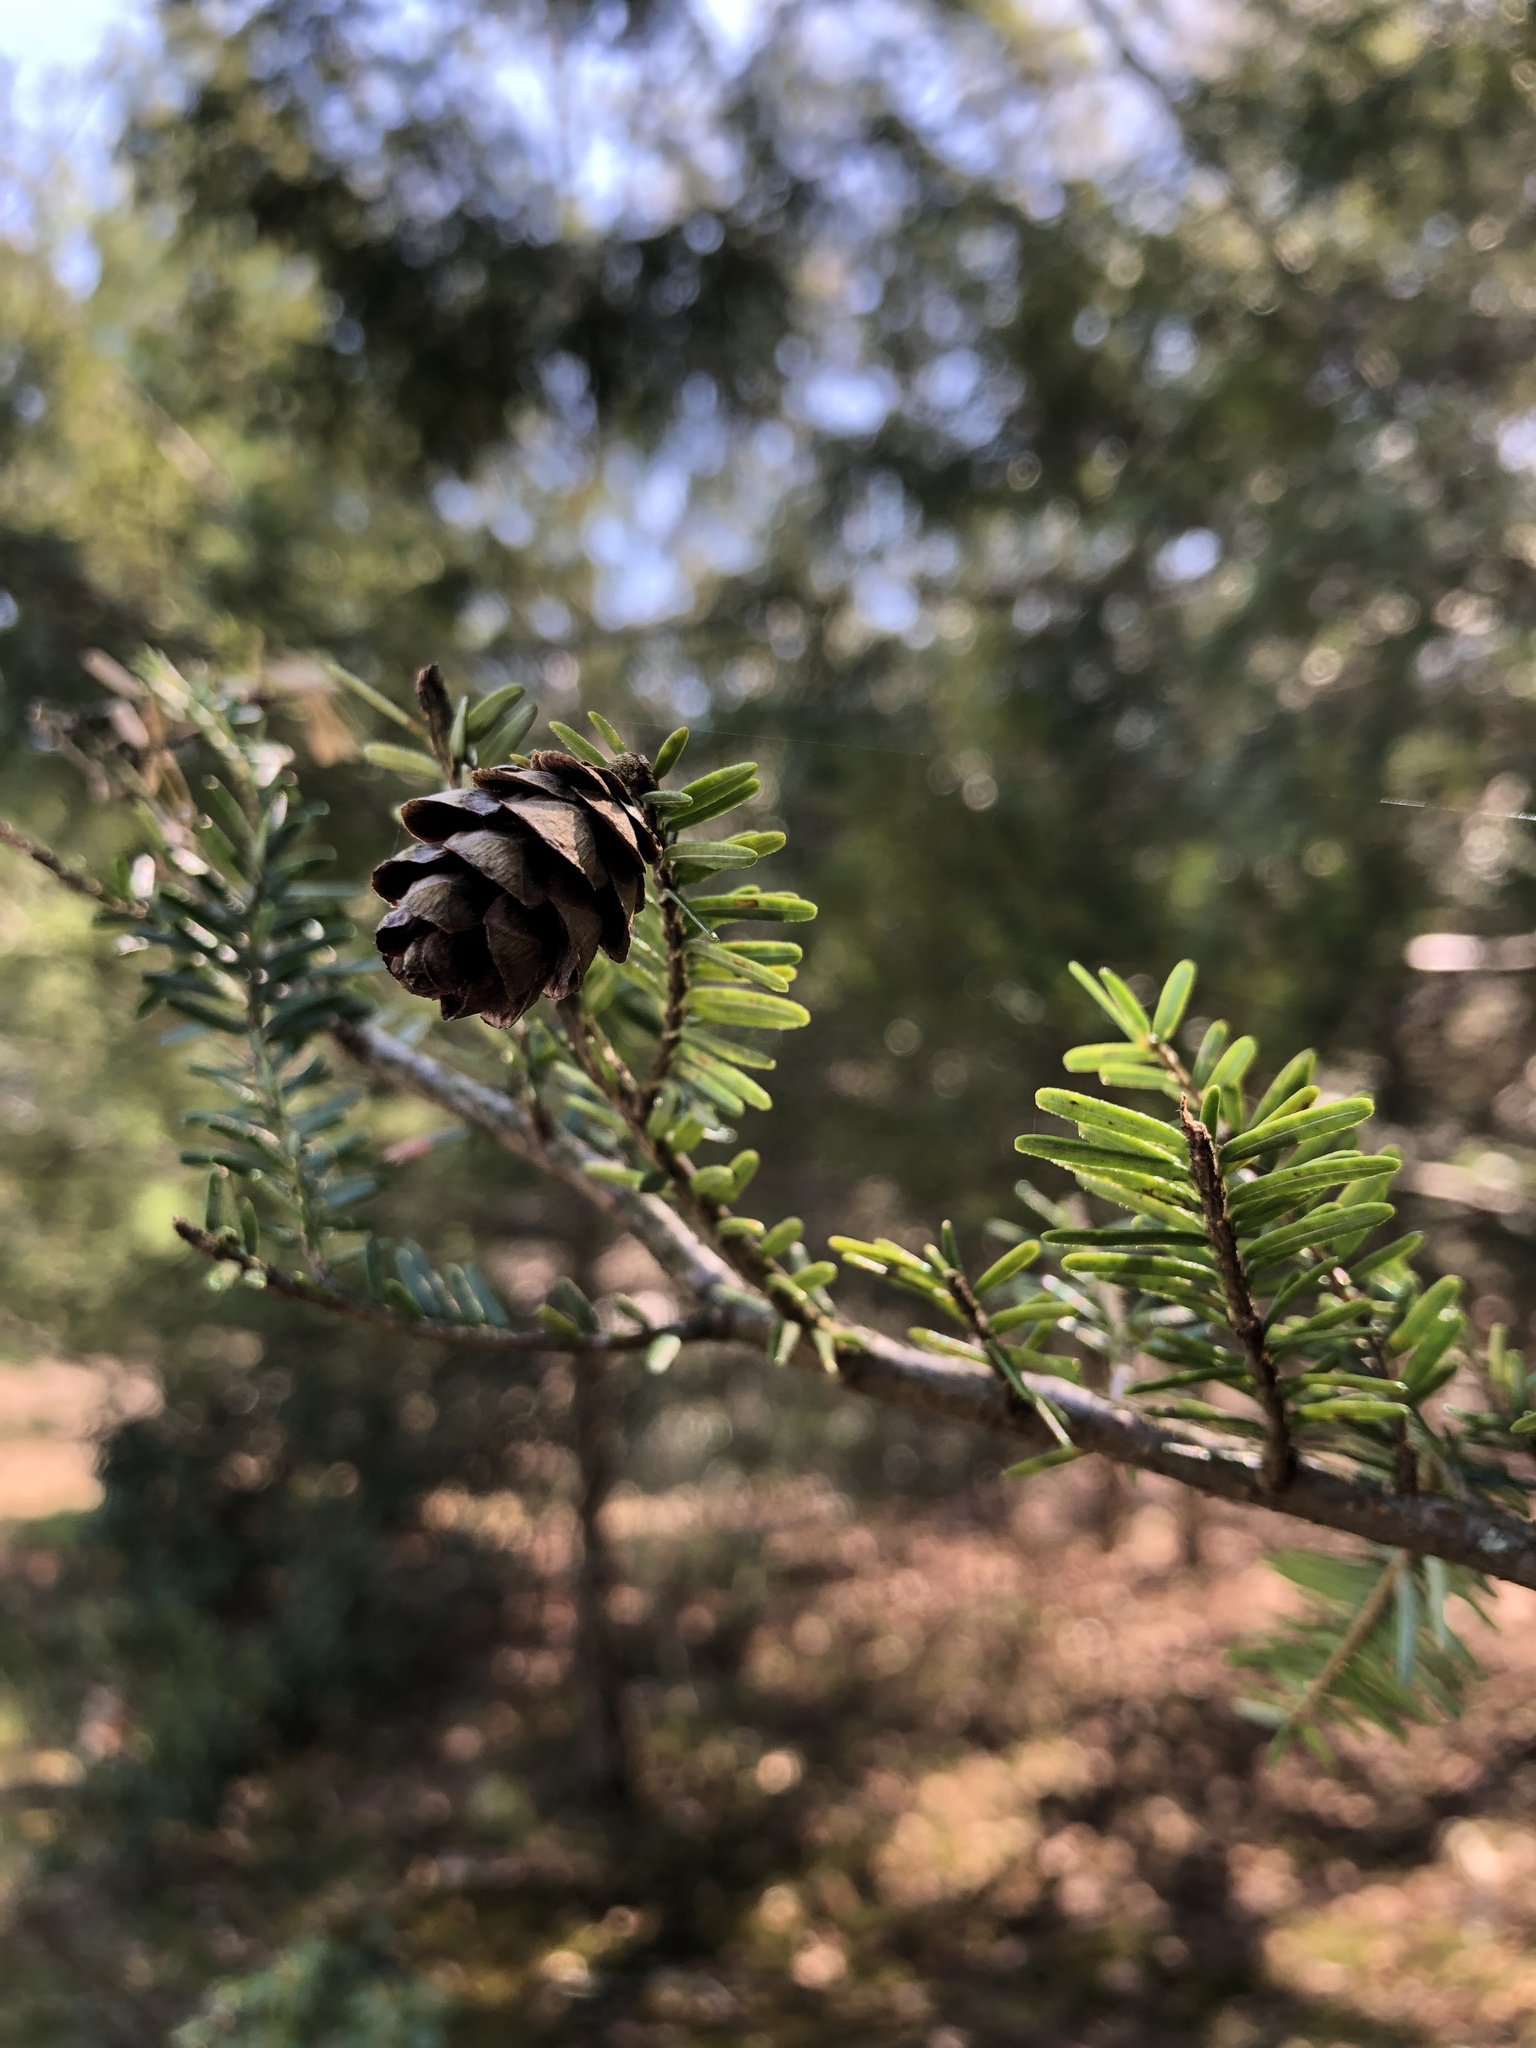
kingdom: Plantae
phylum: Tracheophyta
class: Pinopsida
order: Pinales
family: Pinaceae
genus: Tsuga
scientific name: Tsuga canadensis
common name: Eastern hemlock
